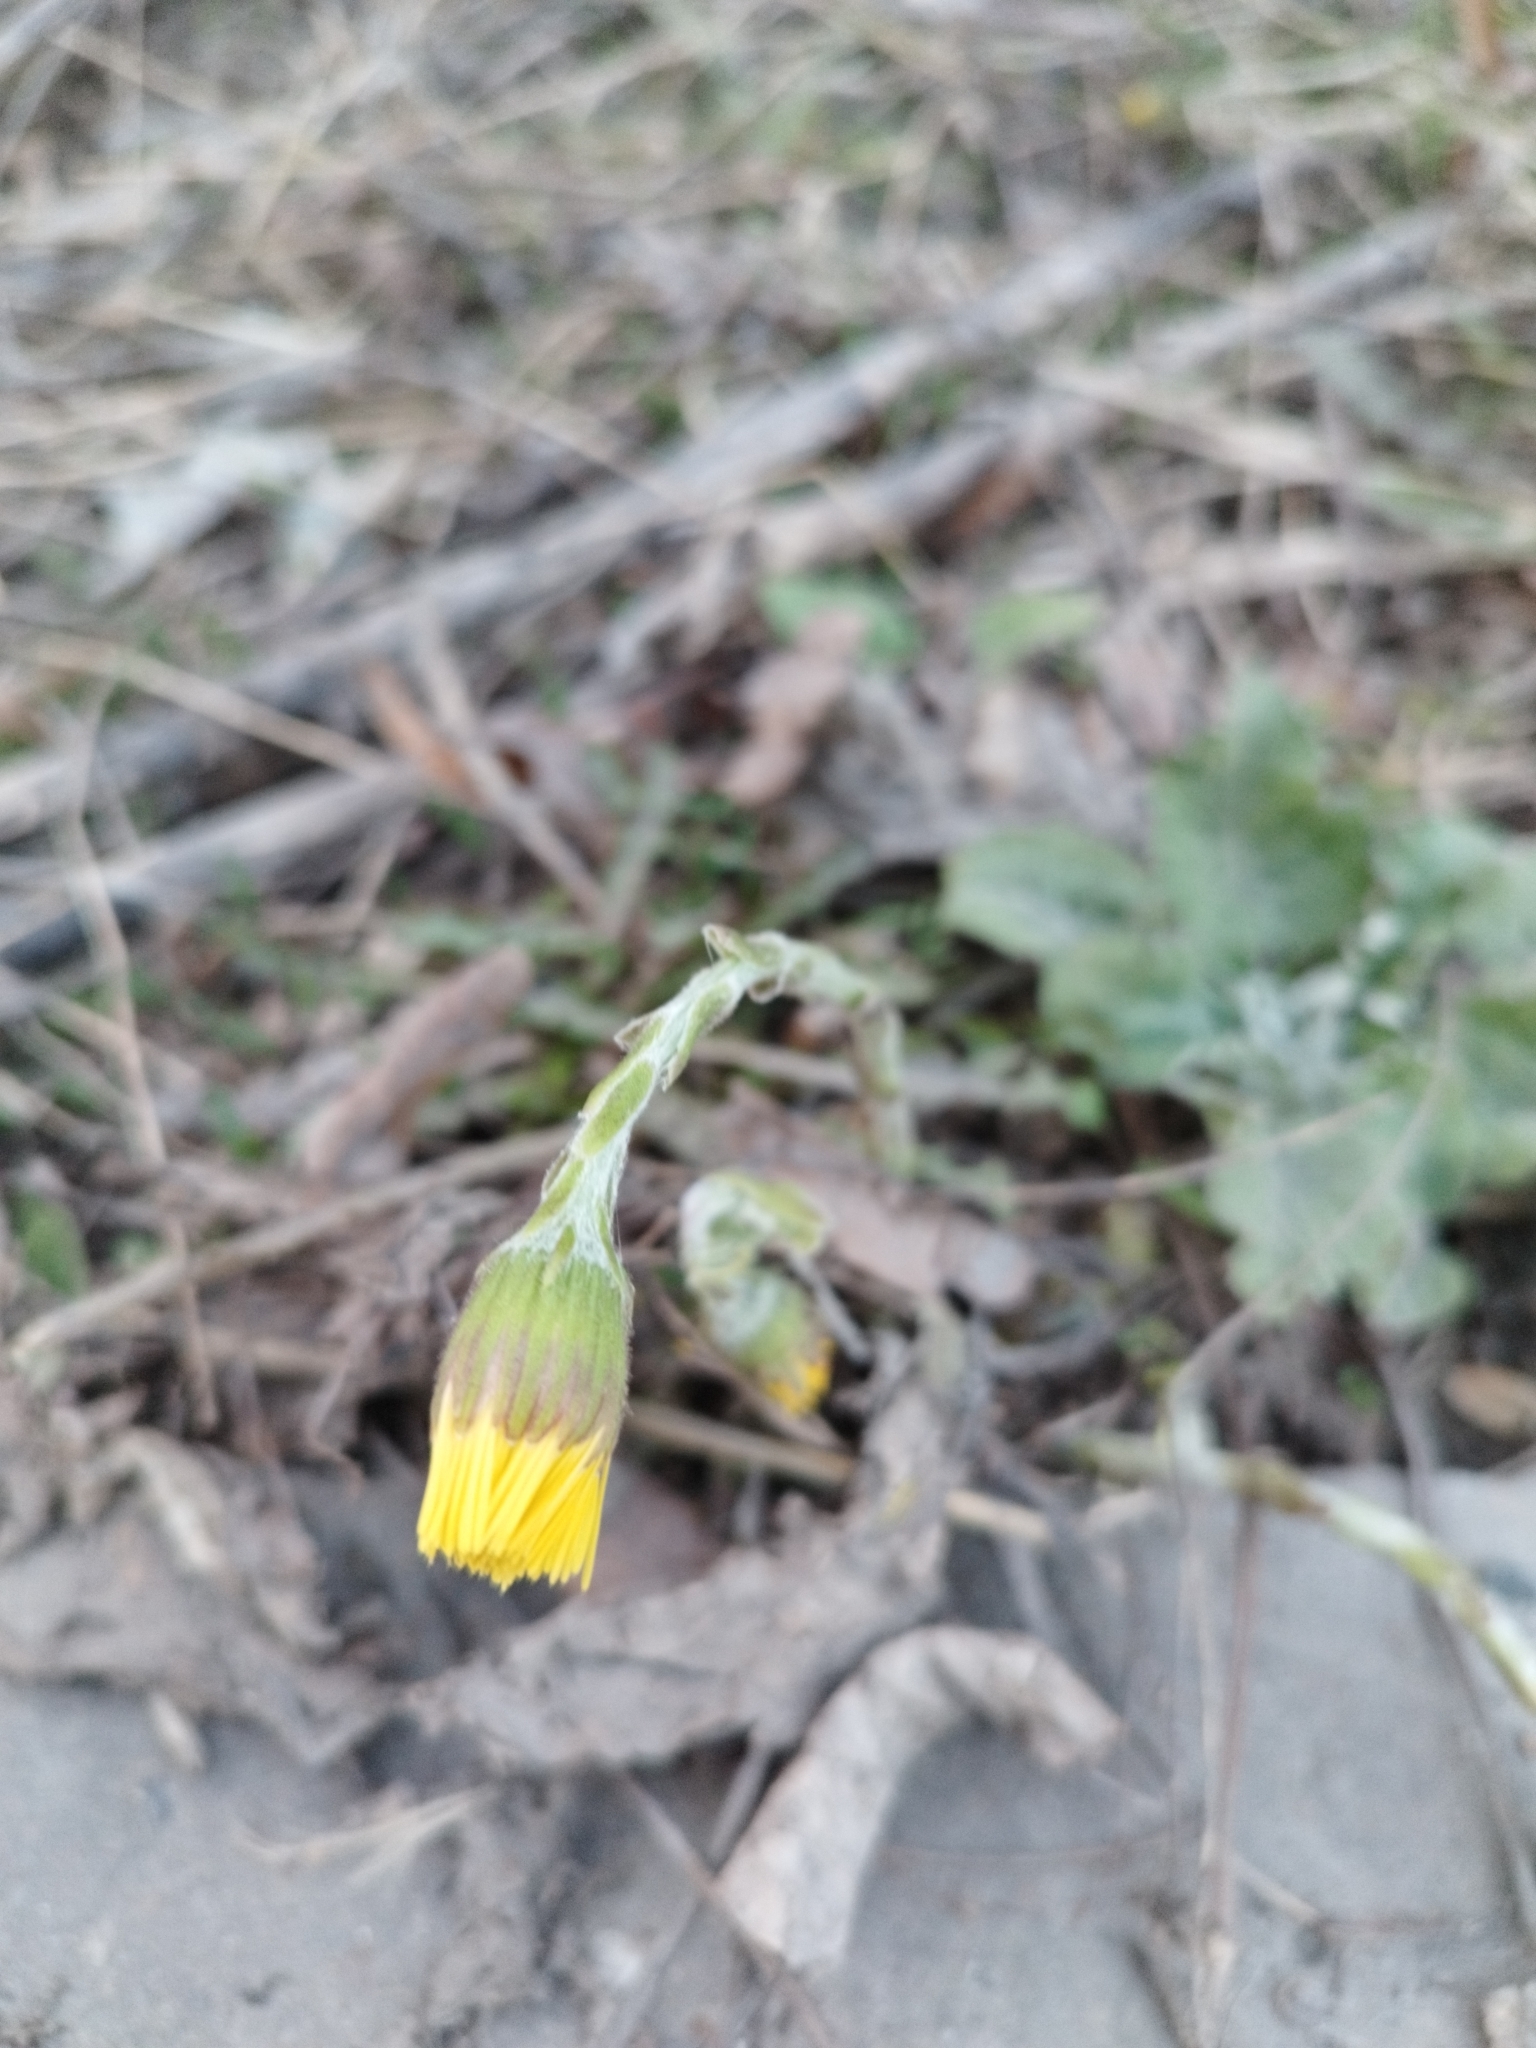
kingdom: Plantae
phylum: Tracheophyta
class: Magnoliopsida
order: Asterales
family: Asteraceae
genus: Tussilago
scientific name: Tussilago farfara
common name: Coltsfoot
